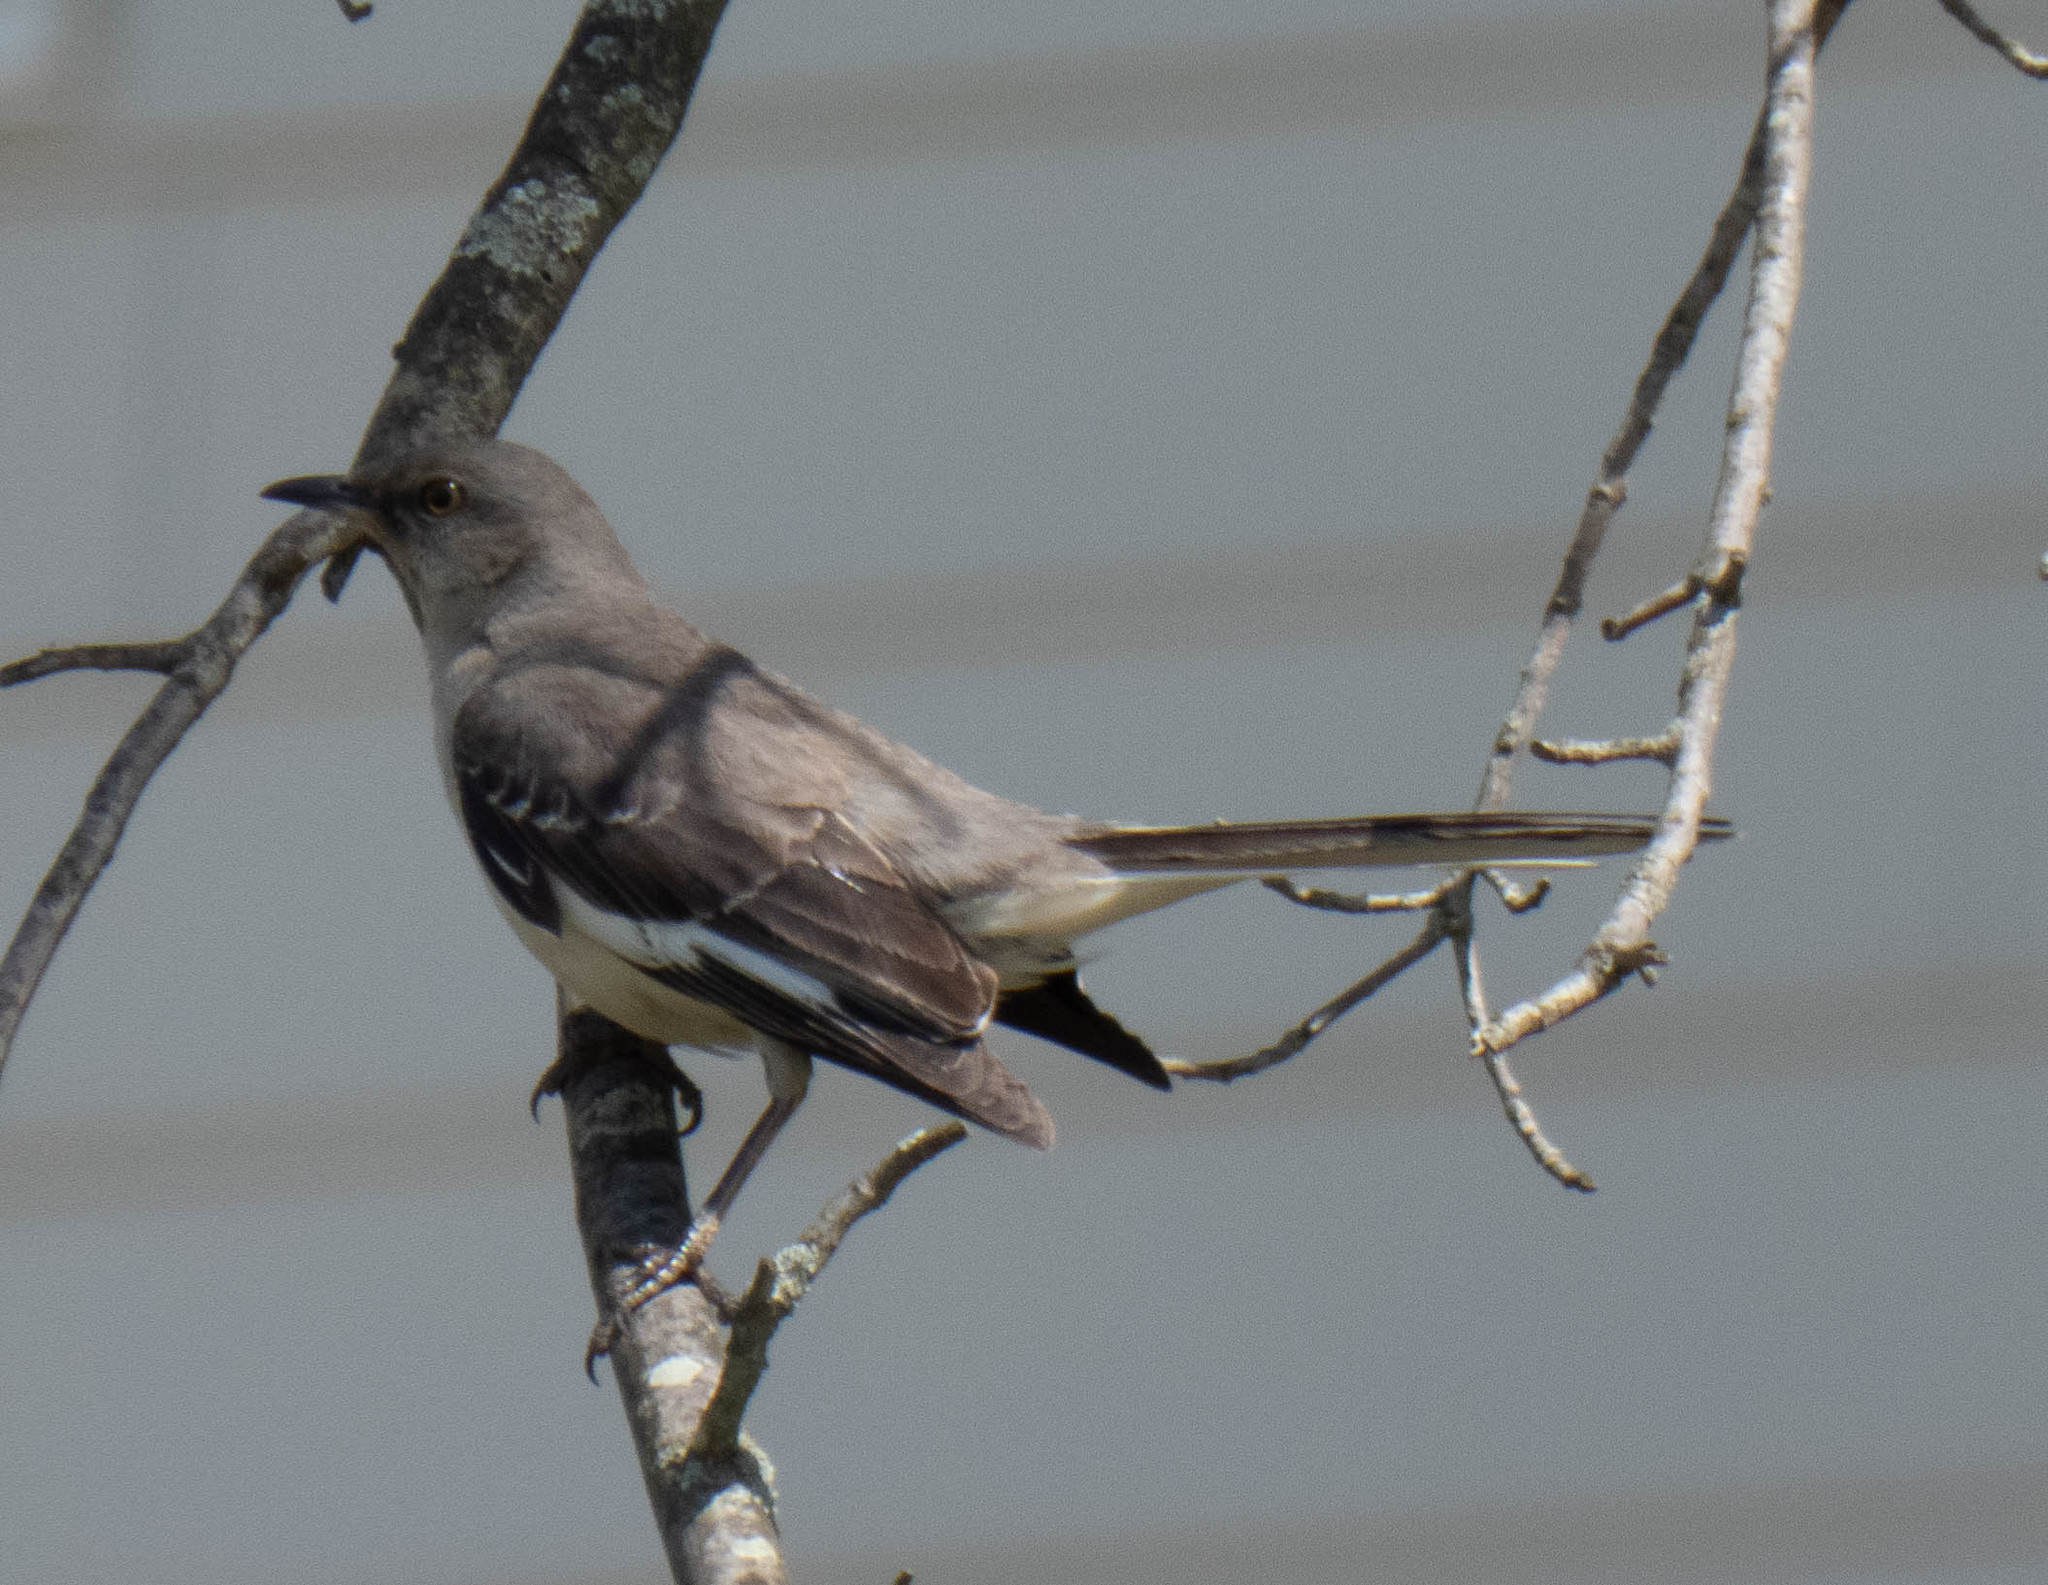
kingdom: Animalia
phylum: Chordata
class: Aves
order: Passeriformes
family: Mimidae
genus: Mimus
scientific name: Mimus polyglottos
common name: Northern mockingbird
